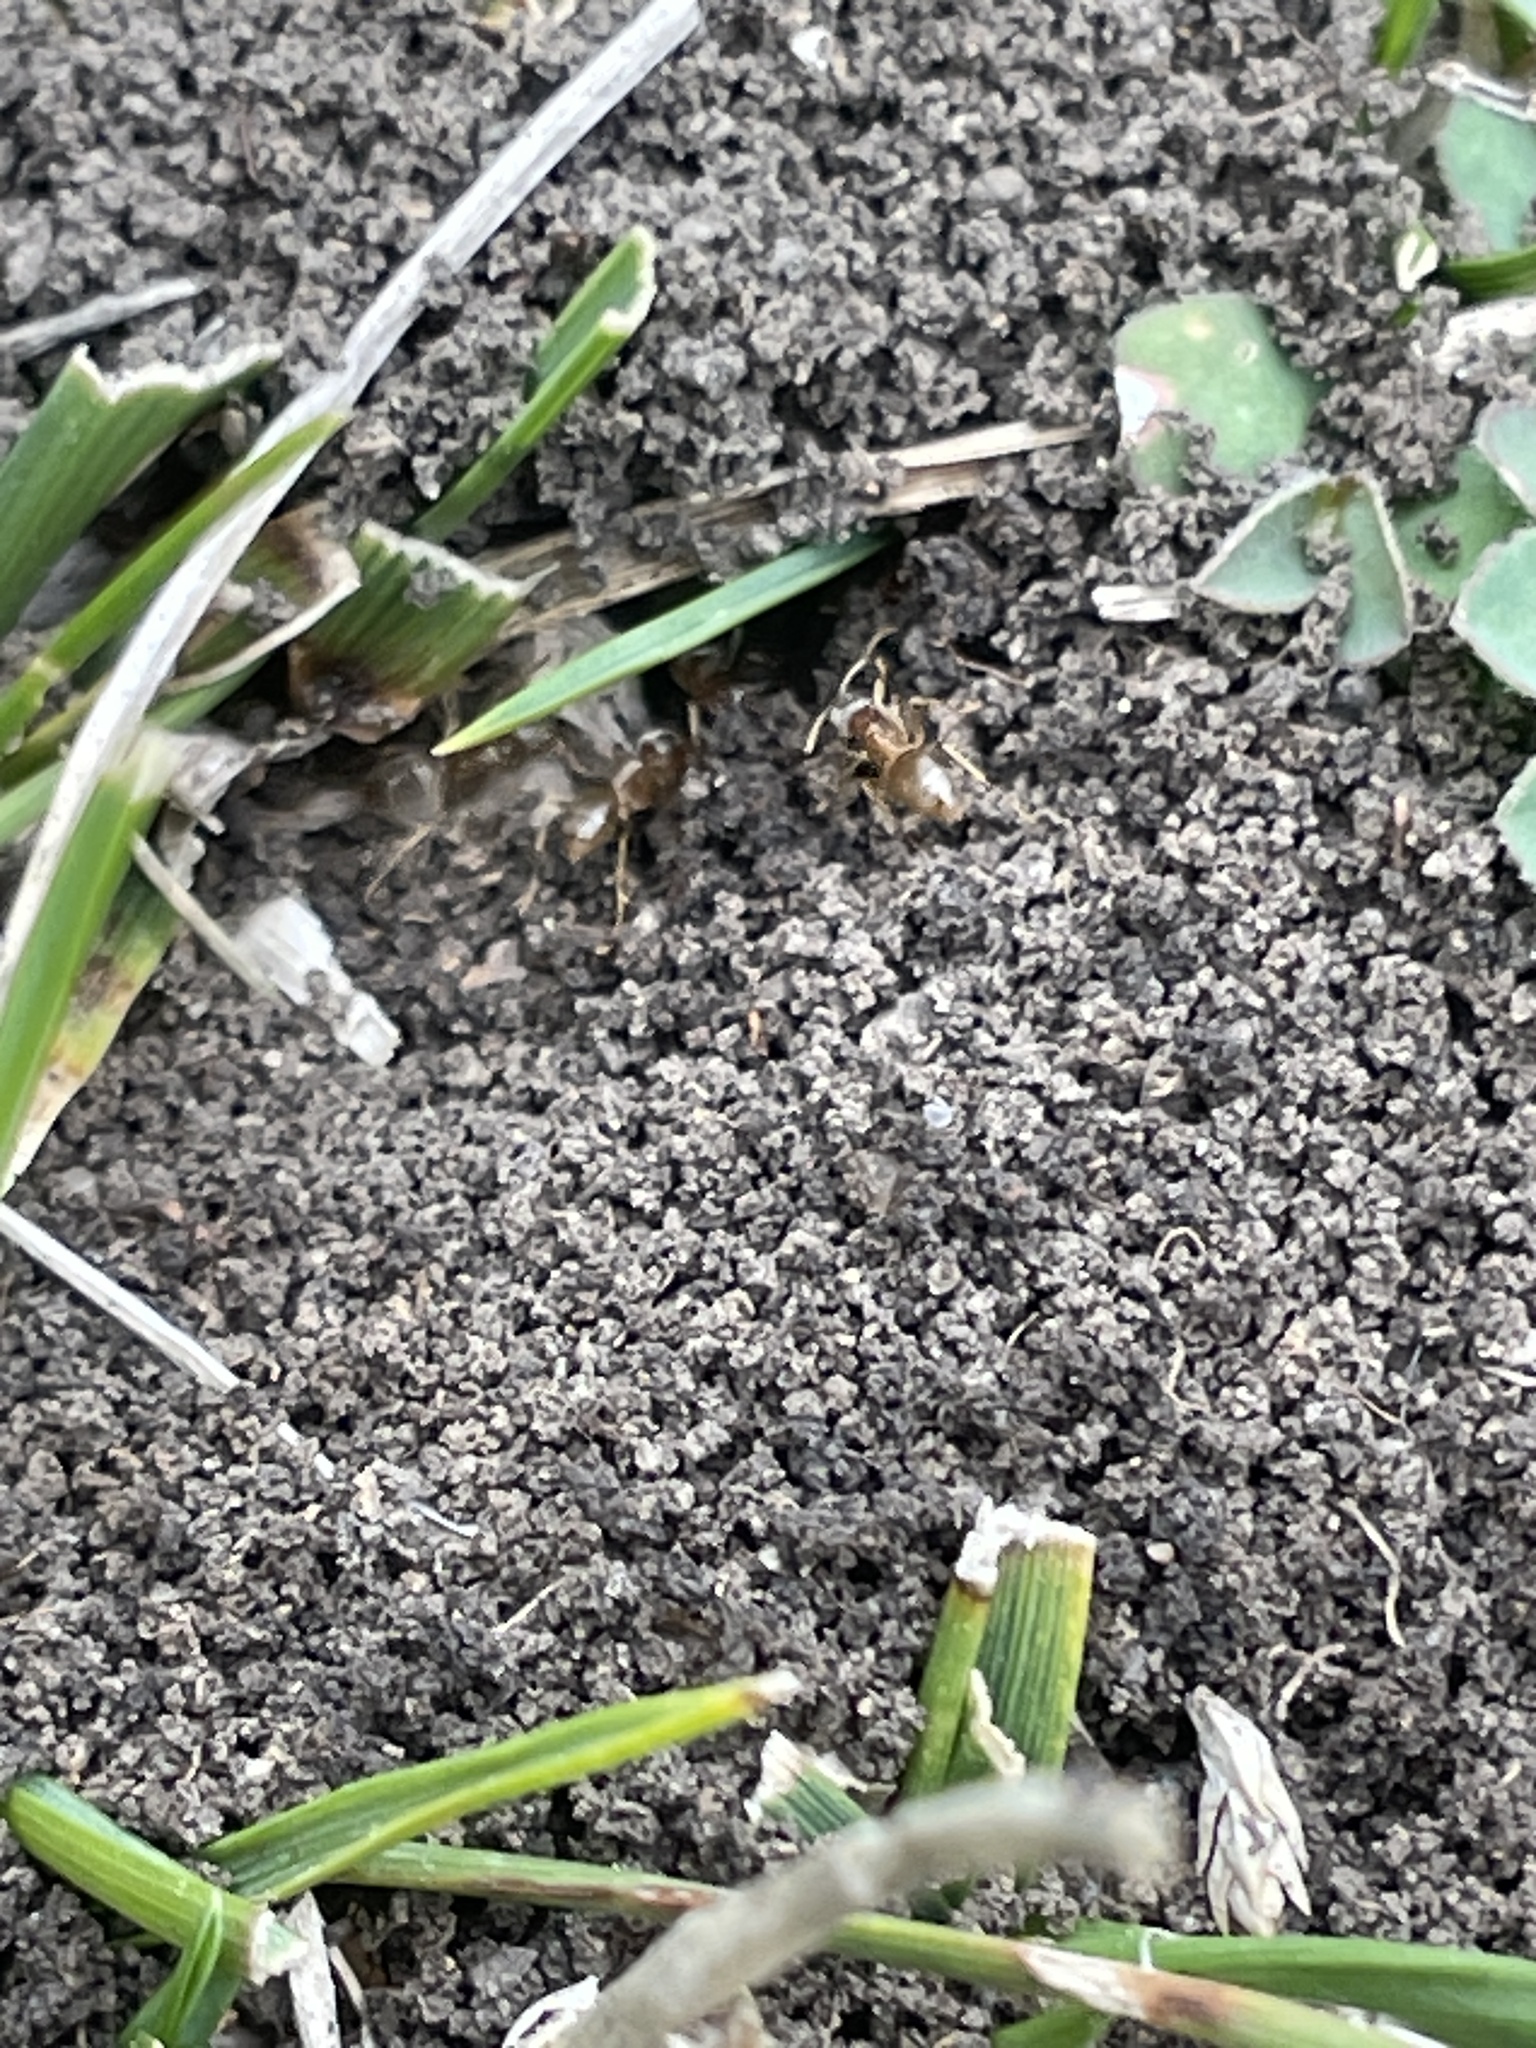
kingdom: Animalia
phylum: Arthropoda
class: Insecta
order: Hymenoptera
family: Formicidae
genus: Lasius
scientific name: Lasius neoniger
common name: Turfgrass ant
